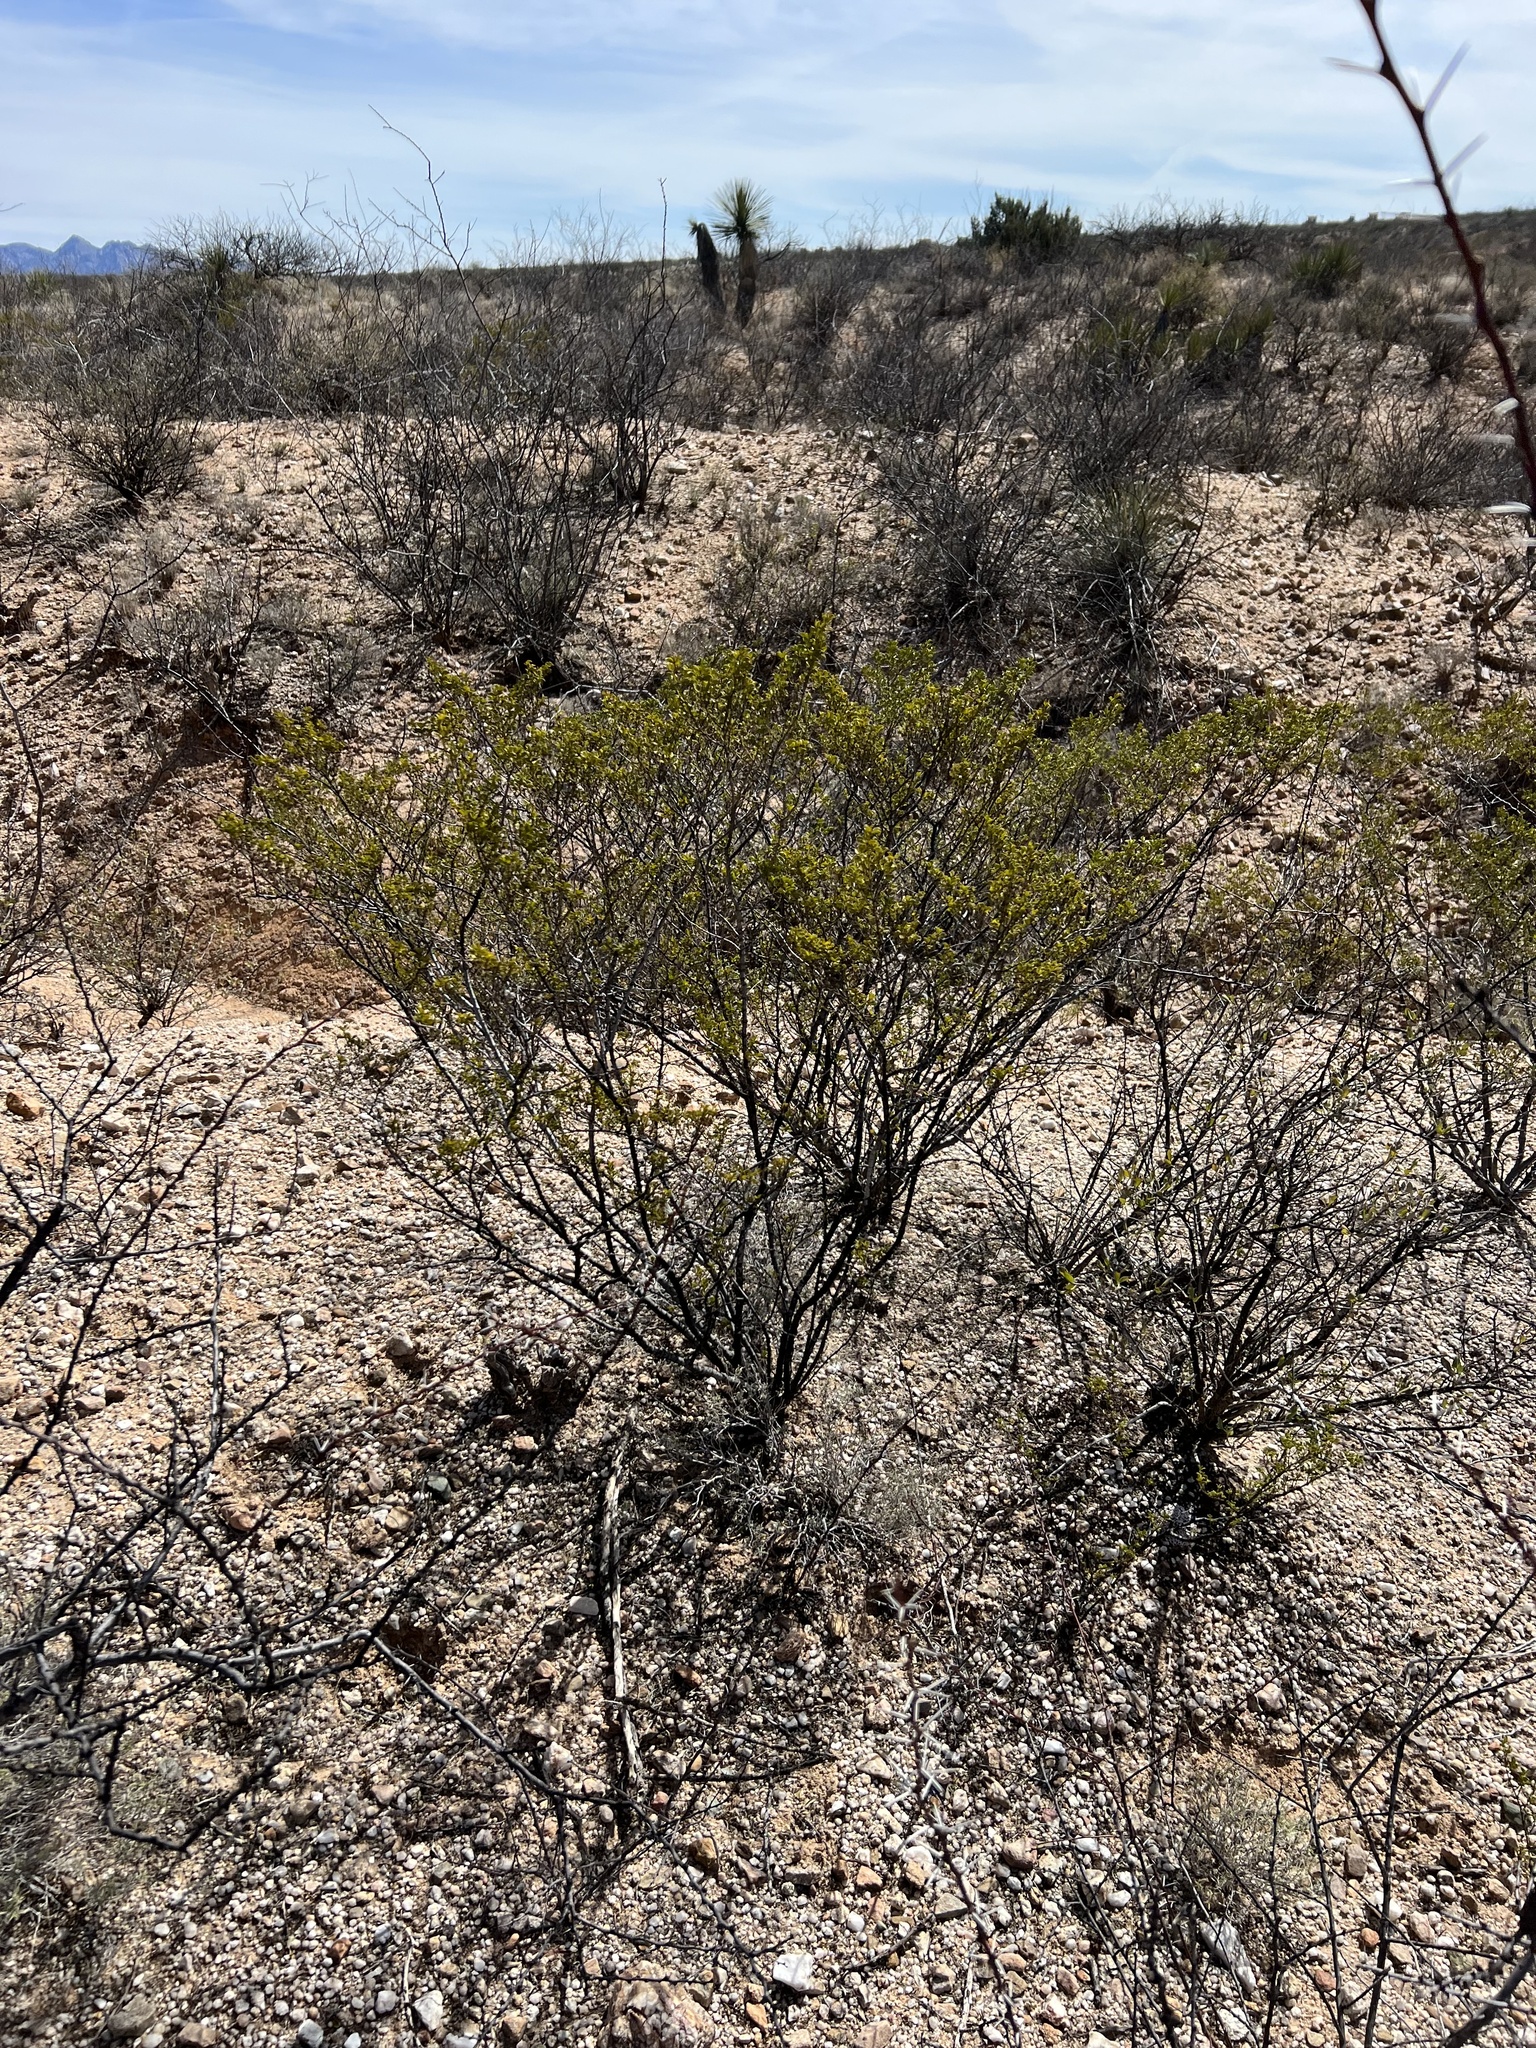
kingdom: Plantae
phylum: Tracheophyta
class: Magnoliopsida
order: Zygophyllales
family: Zygophyllaceae
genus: Larrea
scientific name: Larrea tridentata
